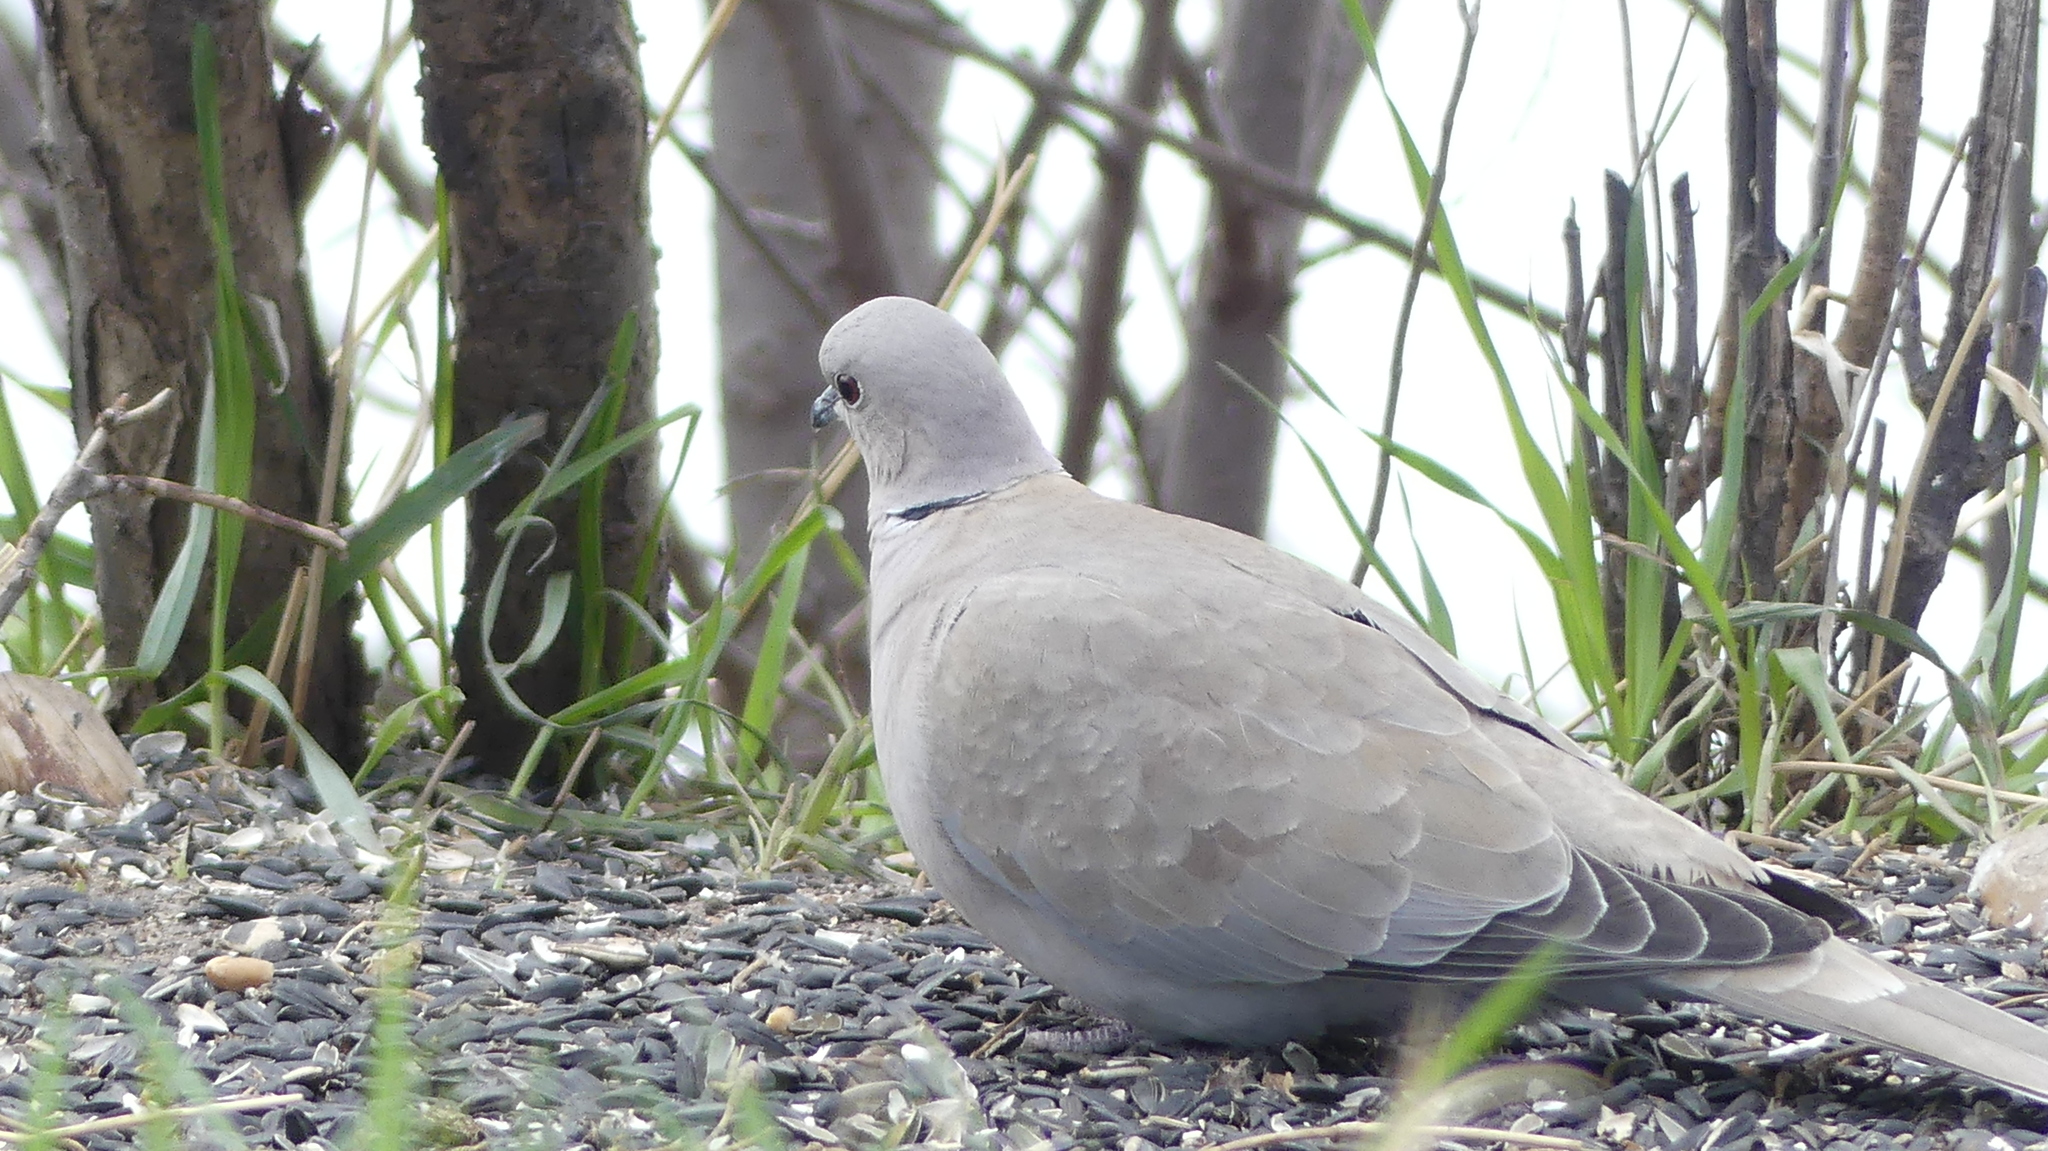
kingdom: Animalia
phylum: Chordata
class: Aves
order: Columbiformes
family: Columbidae
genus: Streptopelia
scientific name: Streptopelia decaocto
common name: Eurasian collared dove
